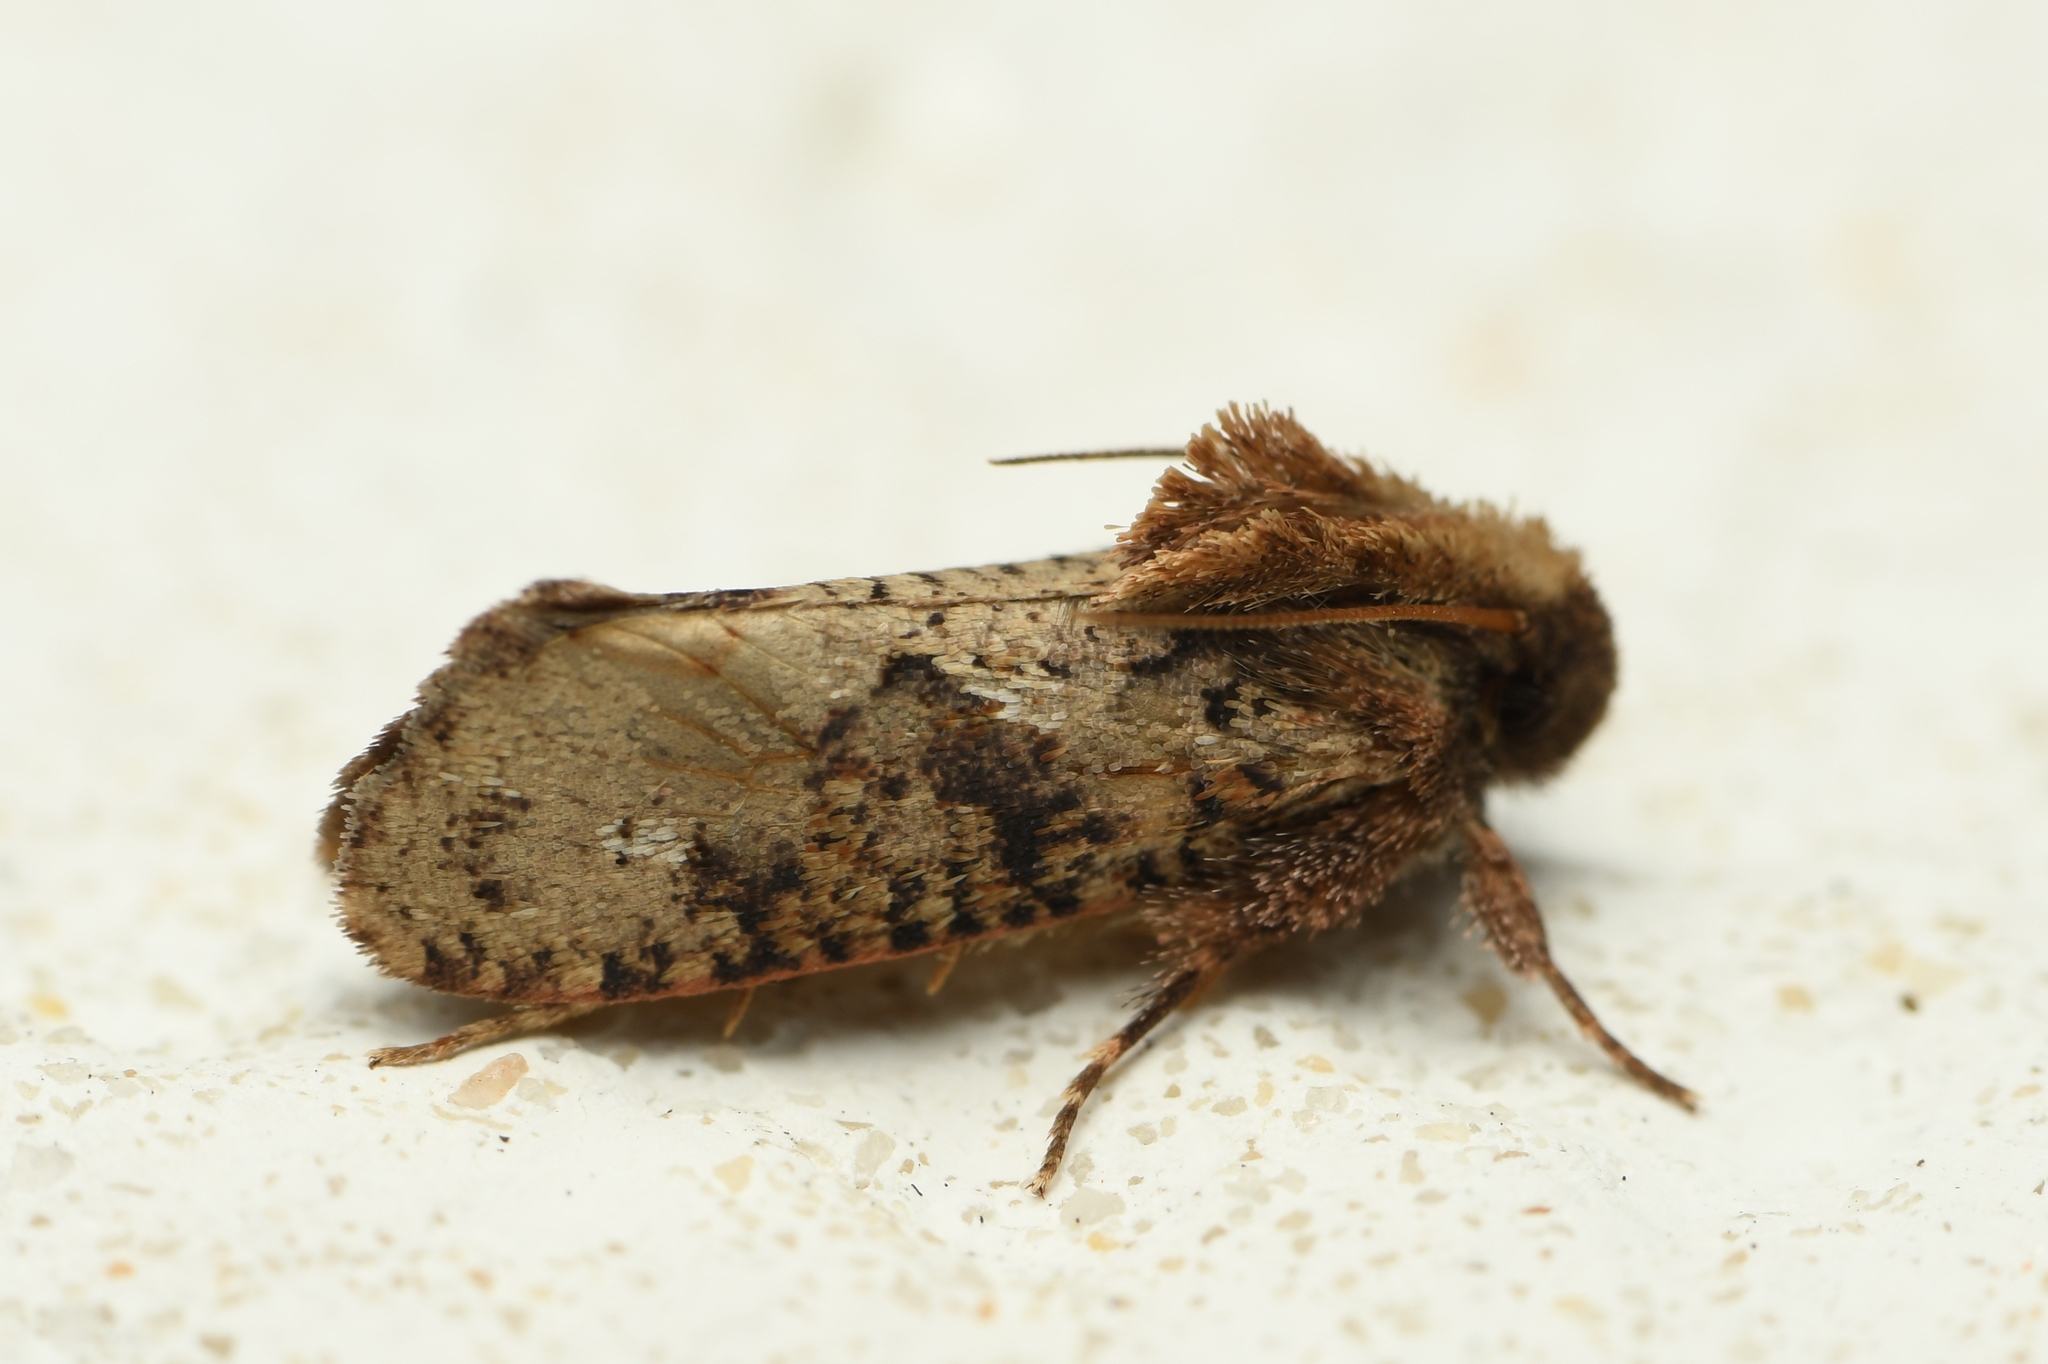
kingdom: Animalia
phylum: Arthropoda
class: Insecta
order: Lepidoptera
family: Tineidae
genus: Acrolophus
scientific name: Acrolophus walsinghami
